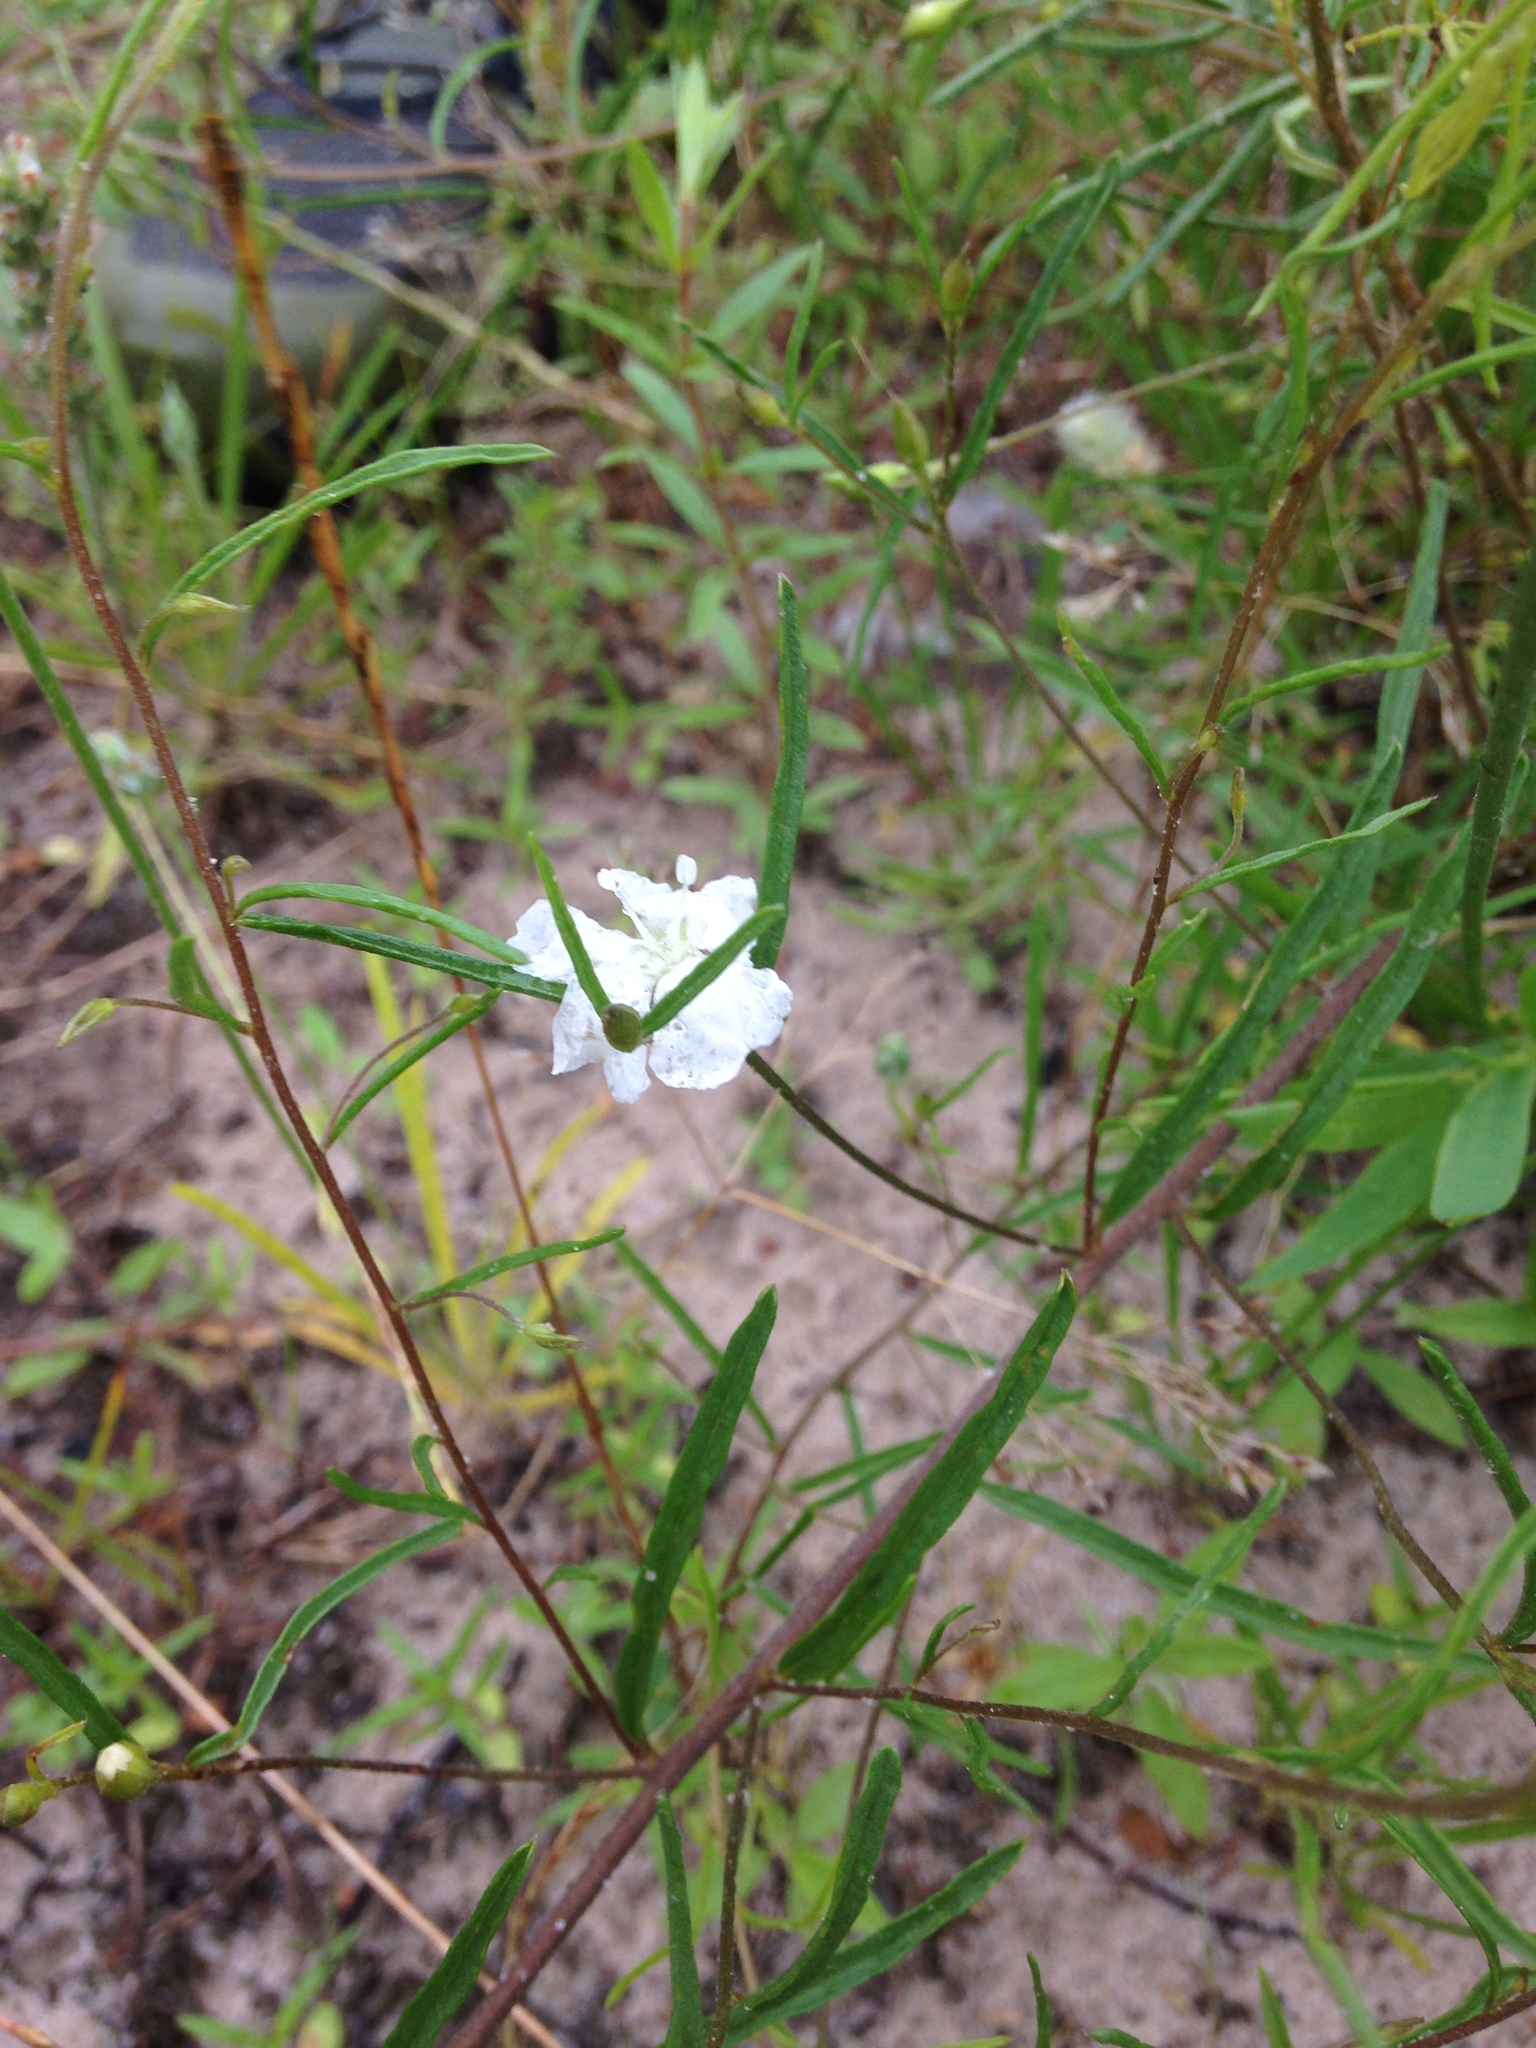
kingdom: Plantae
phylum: Tracheophyta
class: Magnoliopsida
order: Solanales
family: Convolvulaceae
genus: Stylisma
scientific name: Stylisma pickeringii
